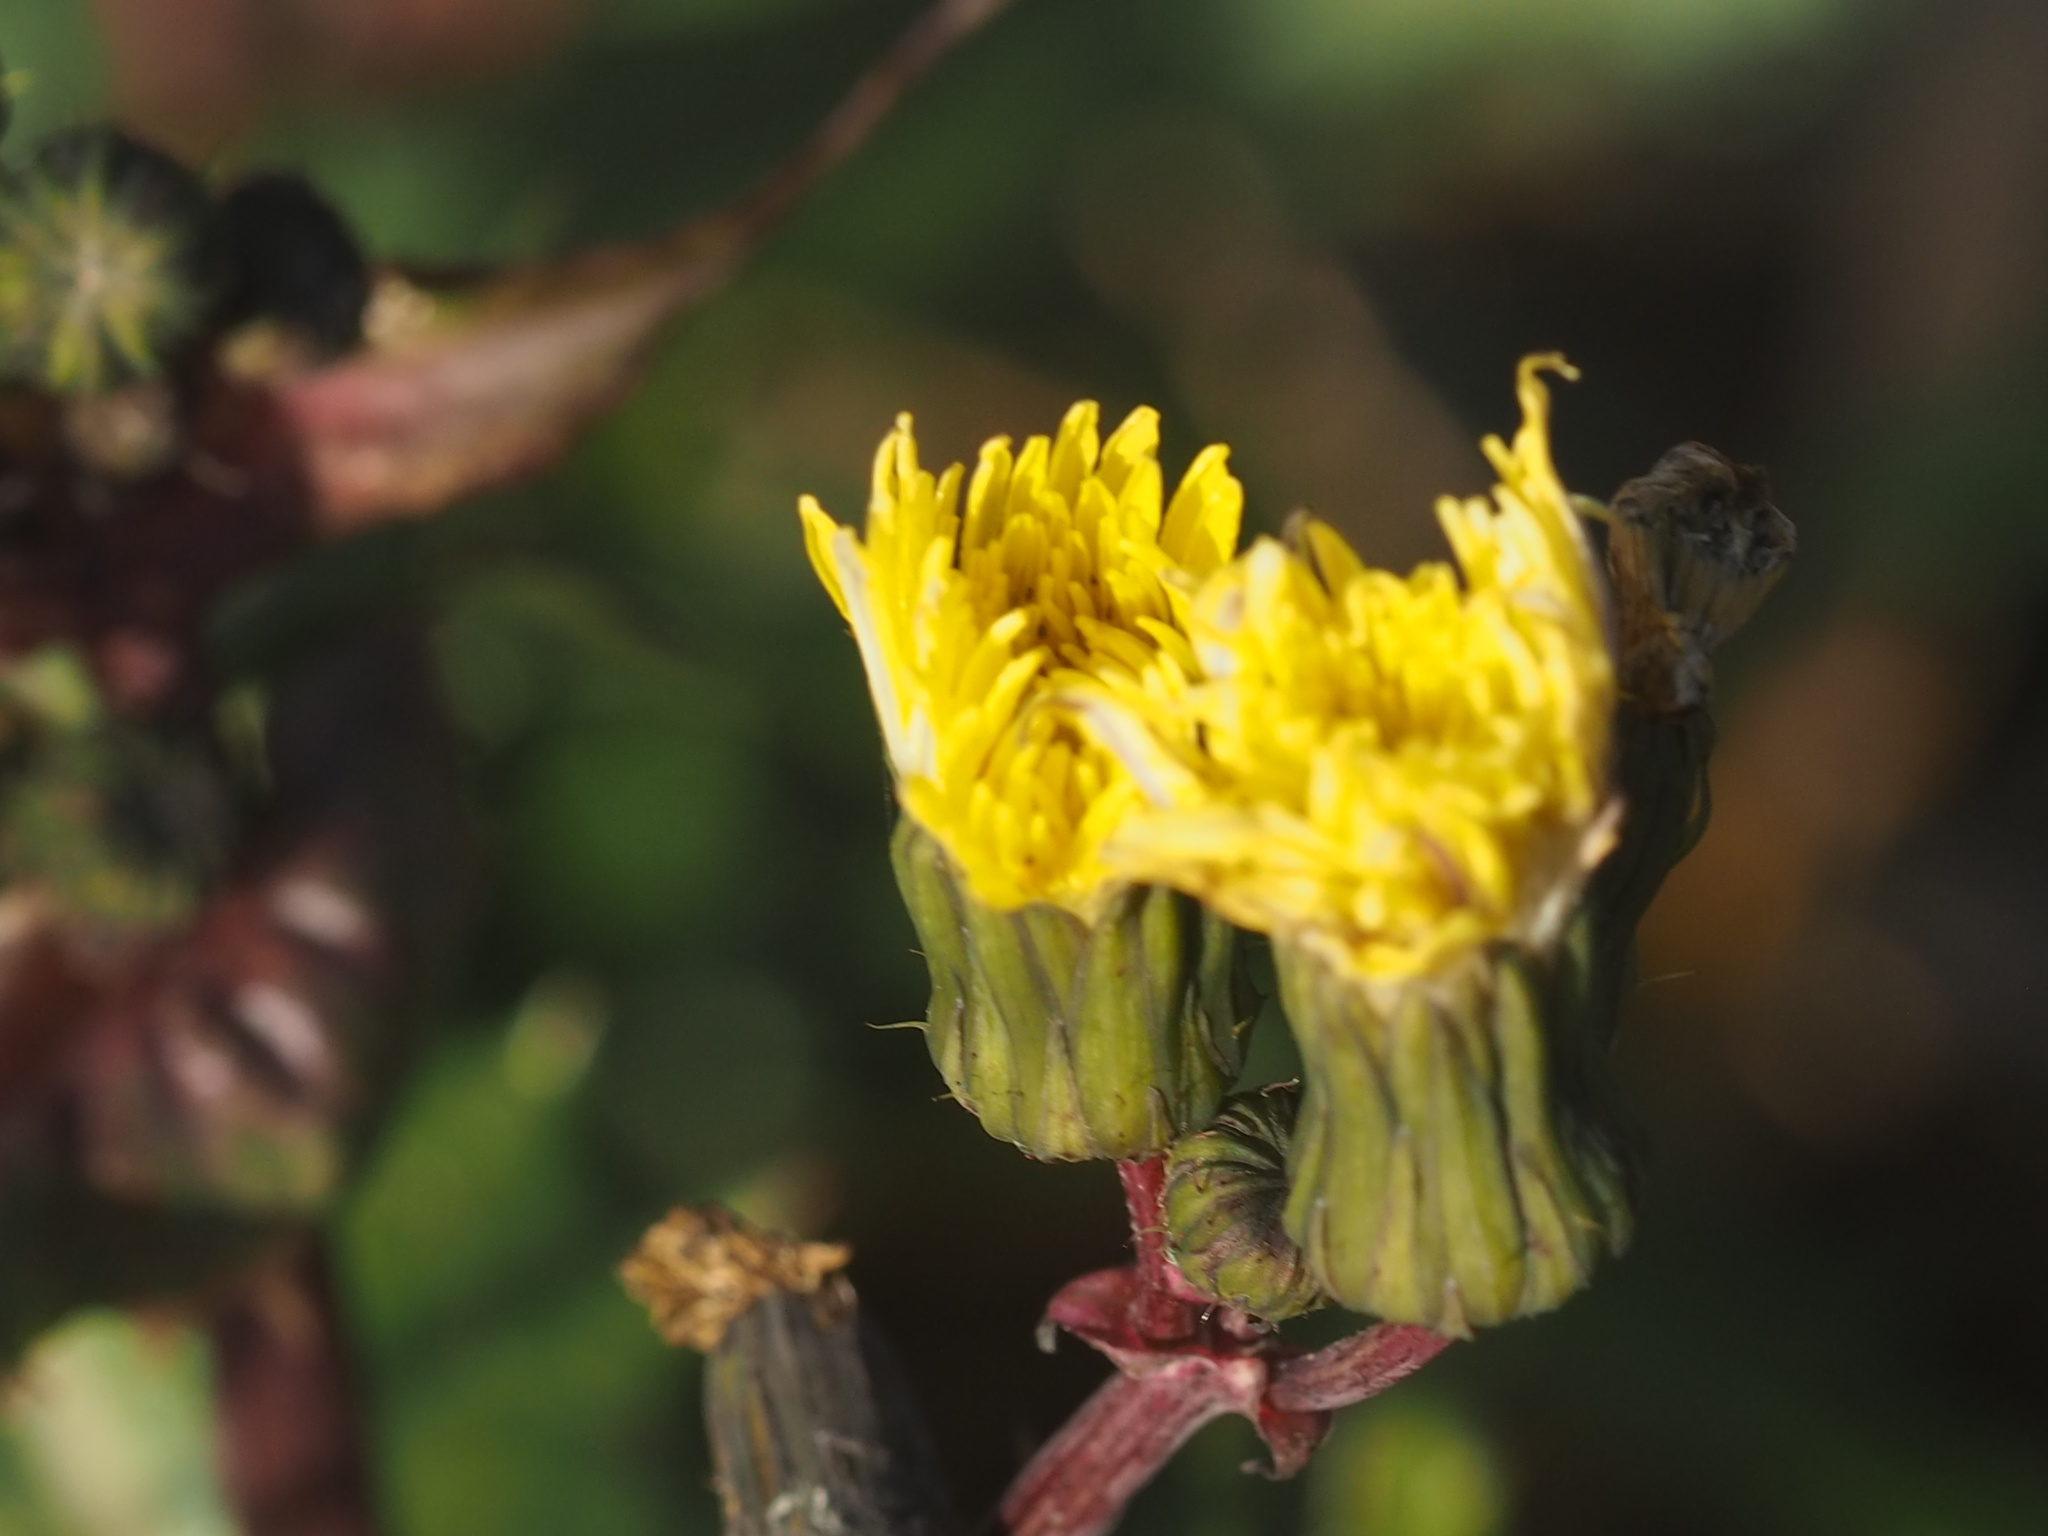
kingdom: Plantae
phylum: Tracheophyta
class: Magnoliopsida
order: Asterales
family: Asteraceae
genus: Sonchus
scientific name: Sonchus asper
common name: Prickly sow-thistle
